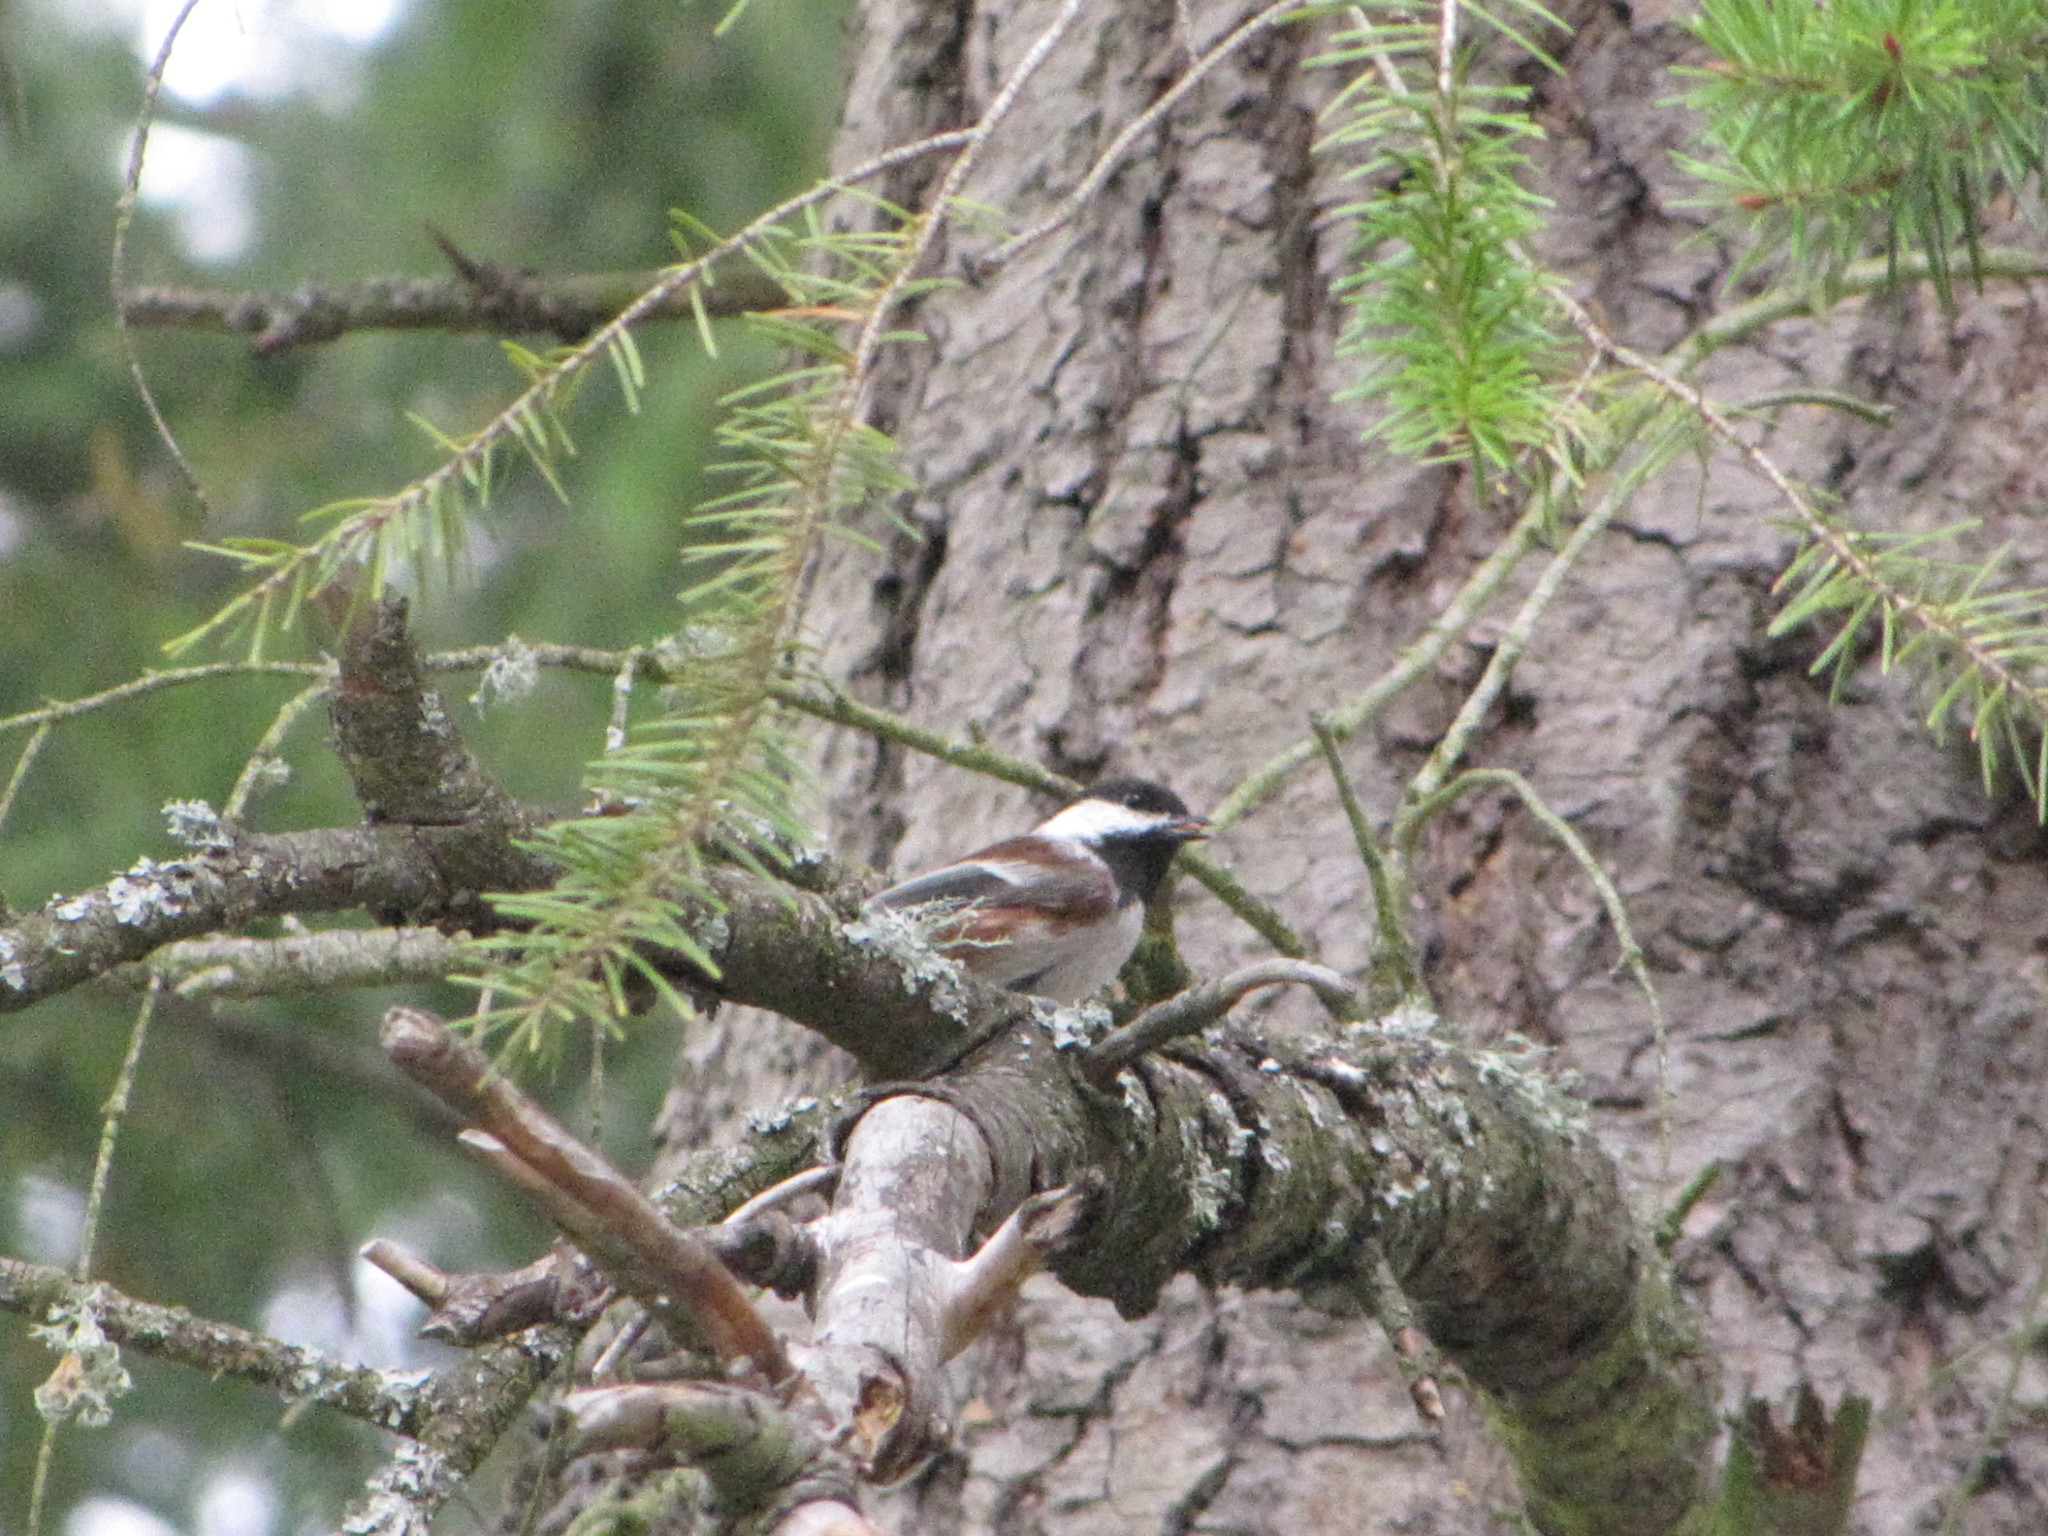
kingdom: Animalia
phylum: Chordata
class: Aves
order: Passeriformes
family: Paridae
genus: Poecile
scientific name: Poecile rufescens
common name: Chestnut-backed chickadee
